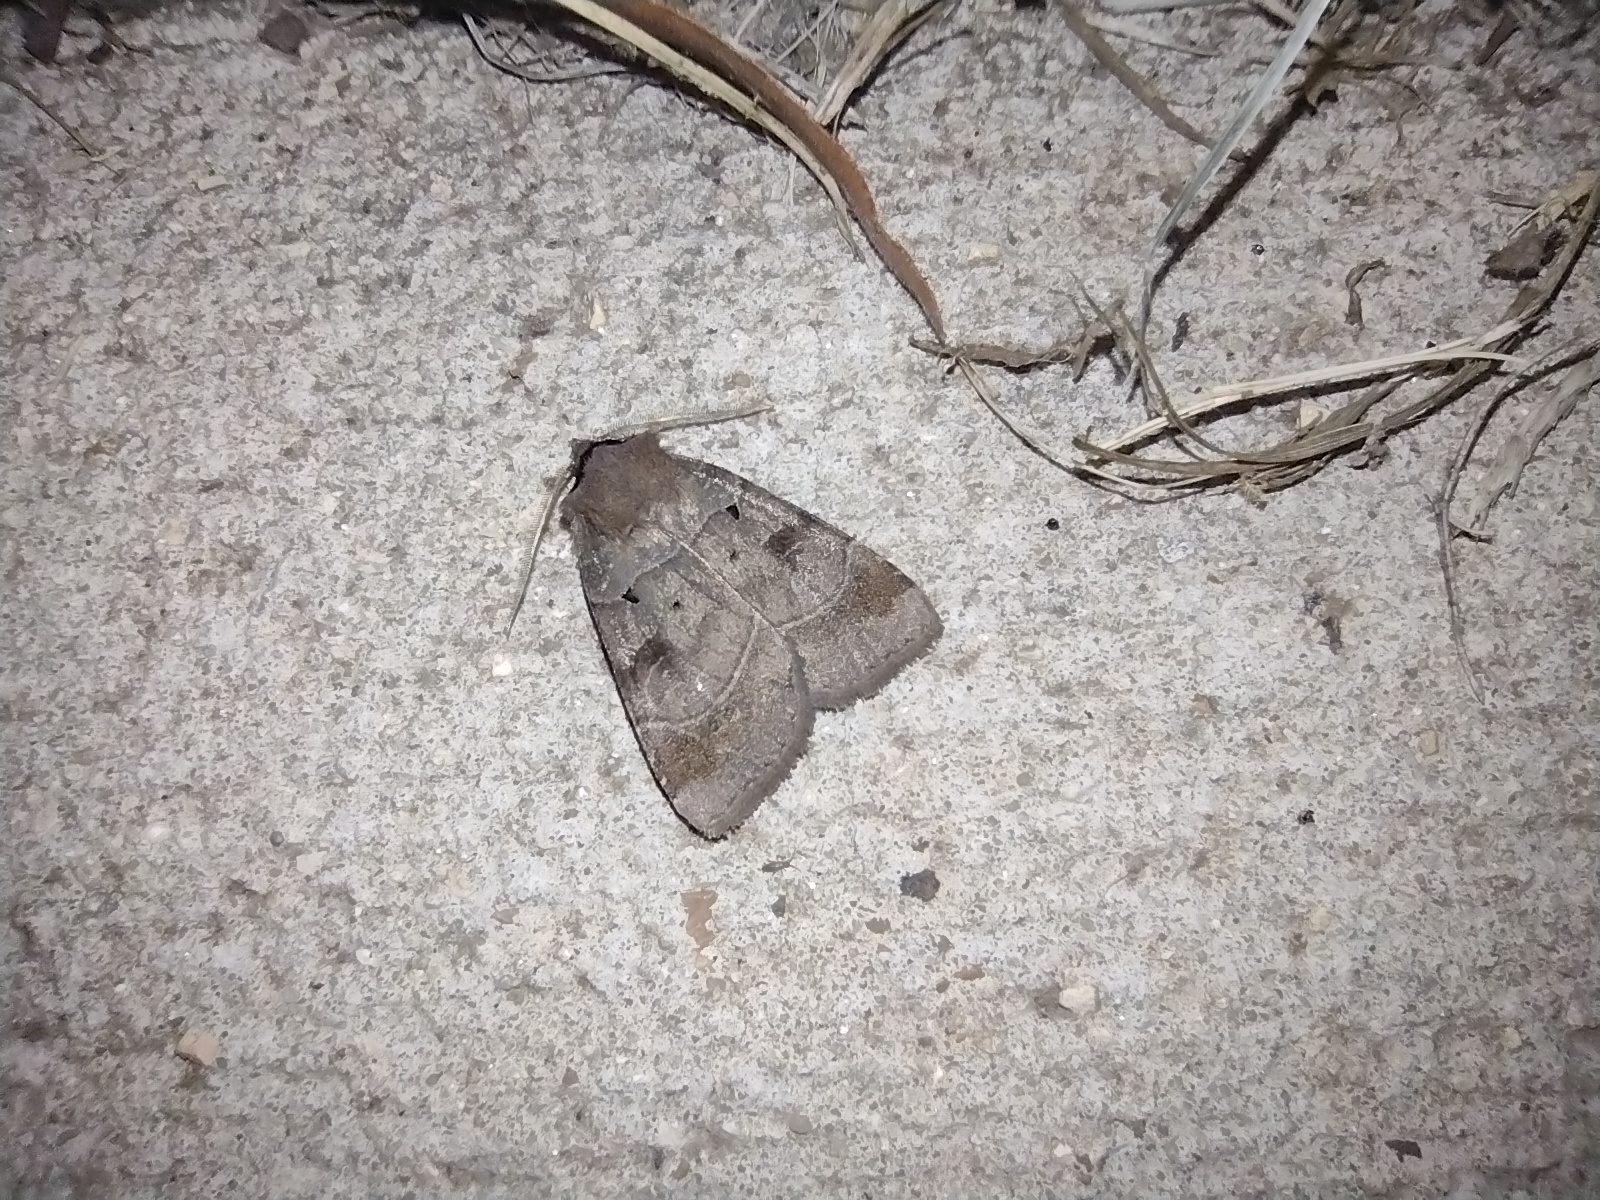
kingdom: Animalia
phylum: Arthropoda
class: Insecta
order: Lepidoptera
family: Noctuidae
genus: Agnorisma
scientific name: Agnorisma badinodis
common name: Pale-banded dart
